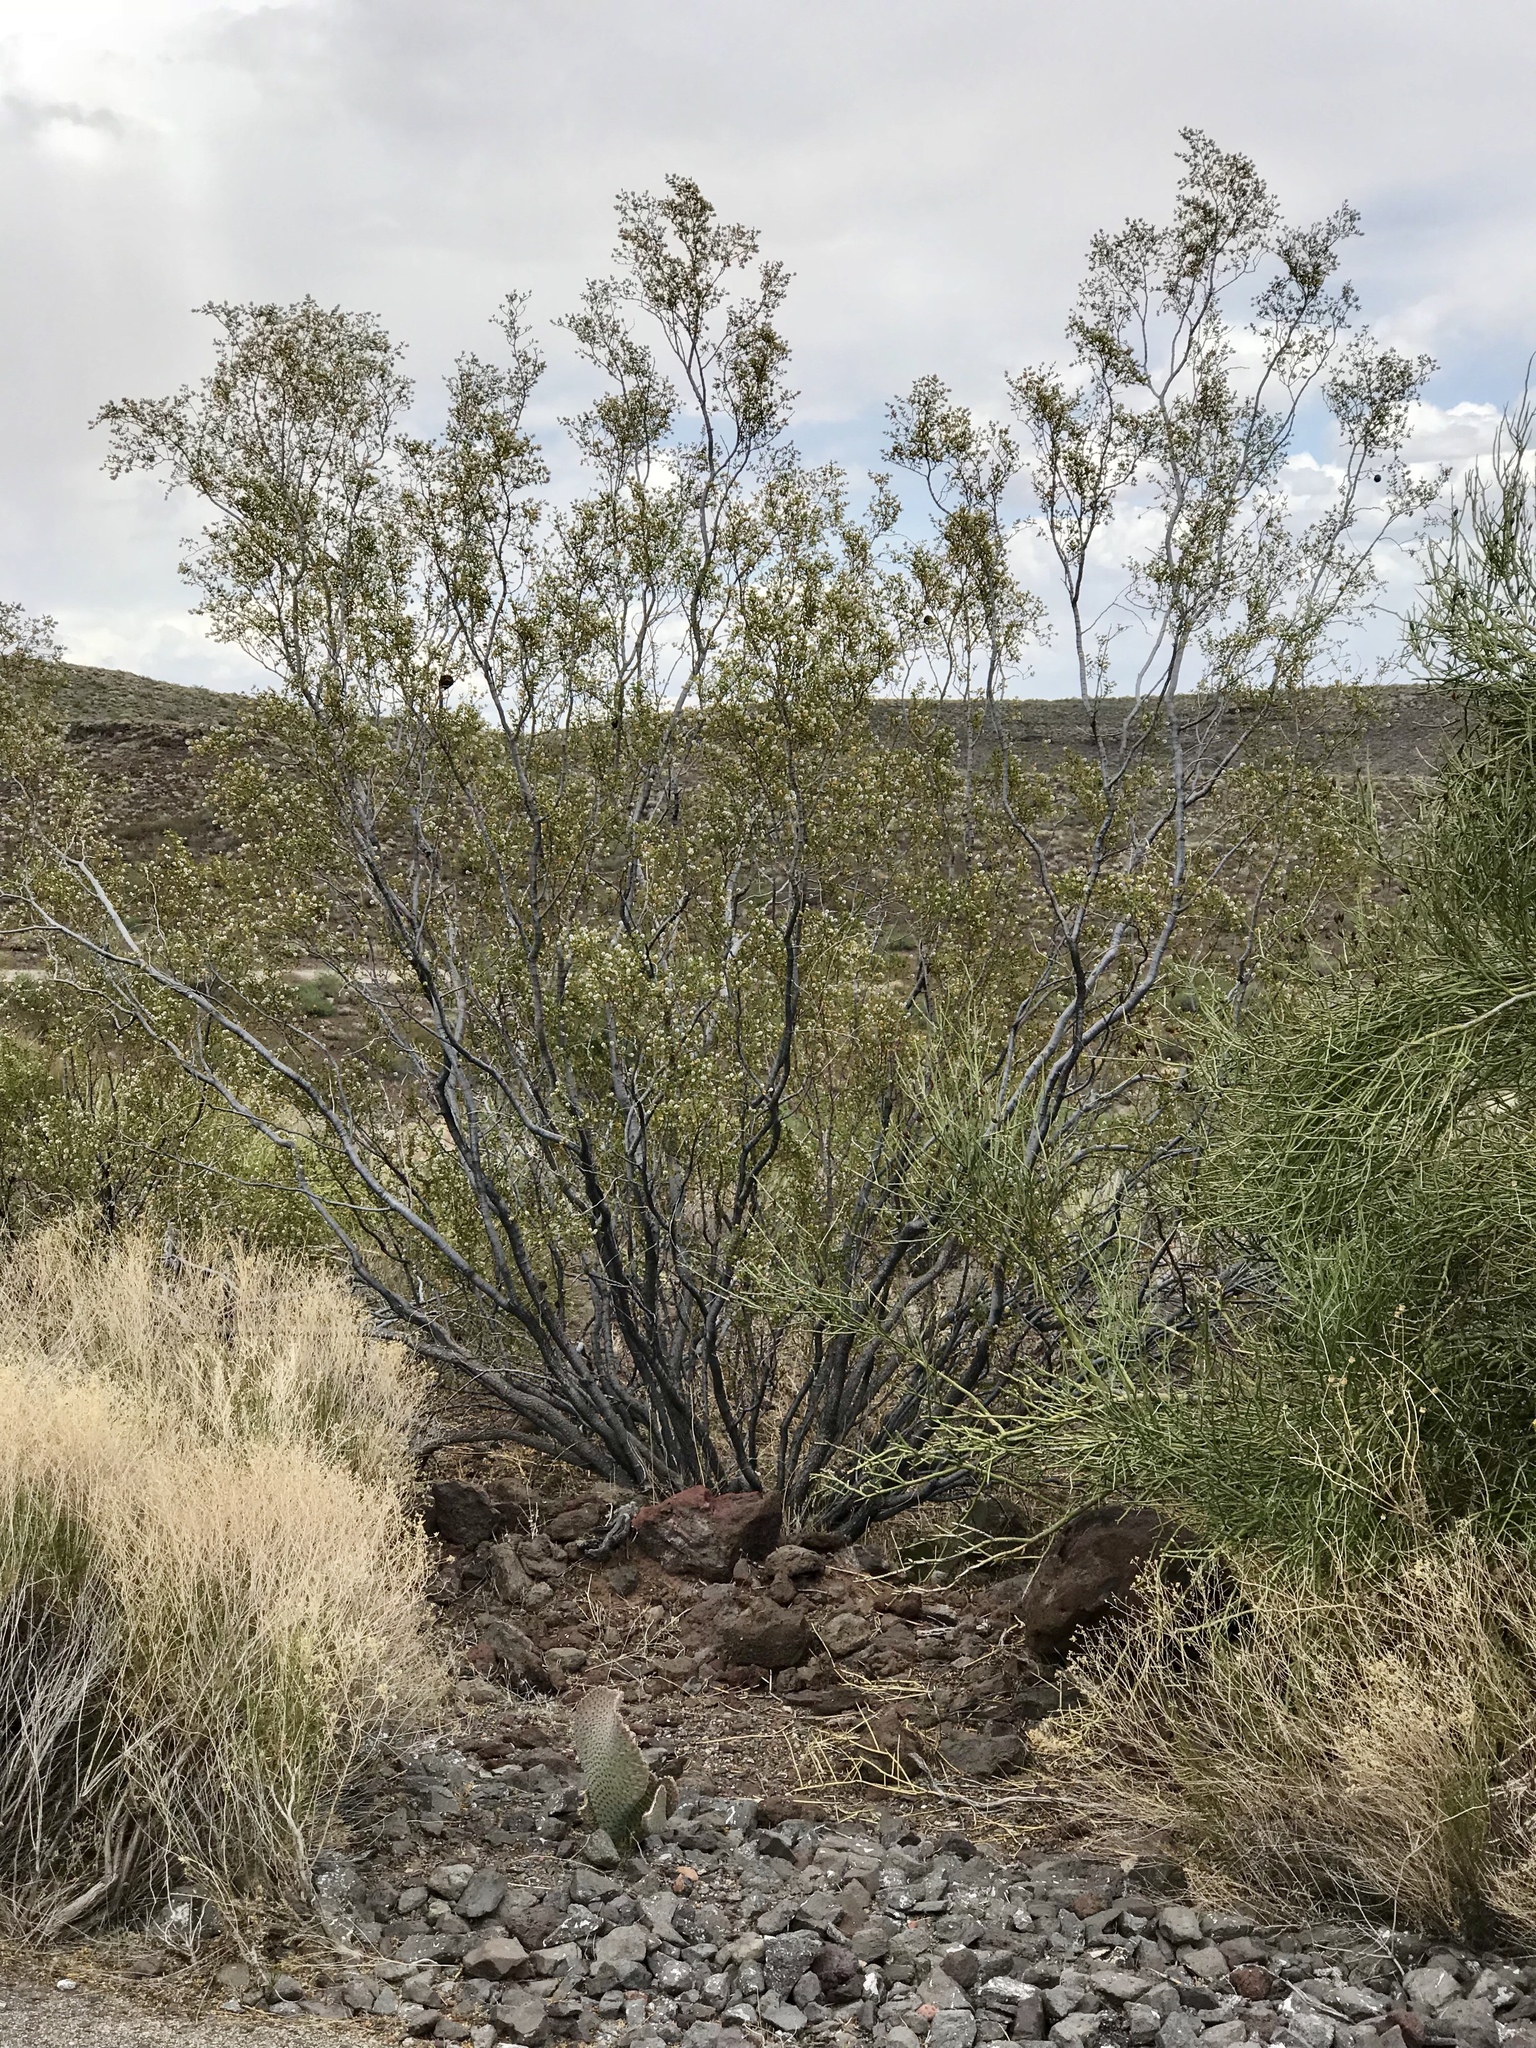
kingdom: Plantae
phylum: Tracheophyta
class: Magnoliopsida
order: Zygophyllales
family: Zygophyllaceae
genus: Larrea
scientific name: Larrea tridentata
